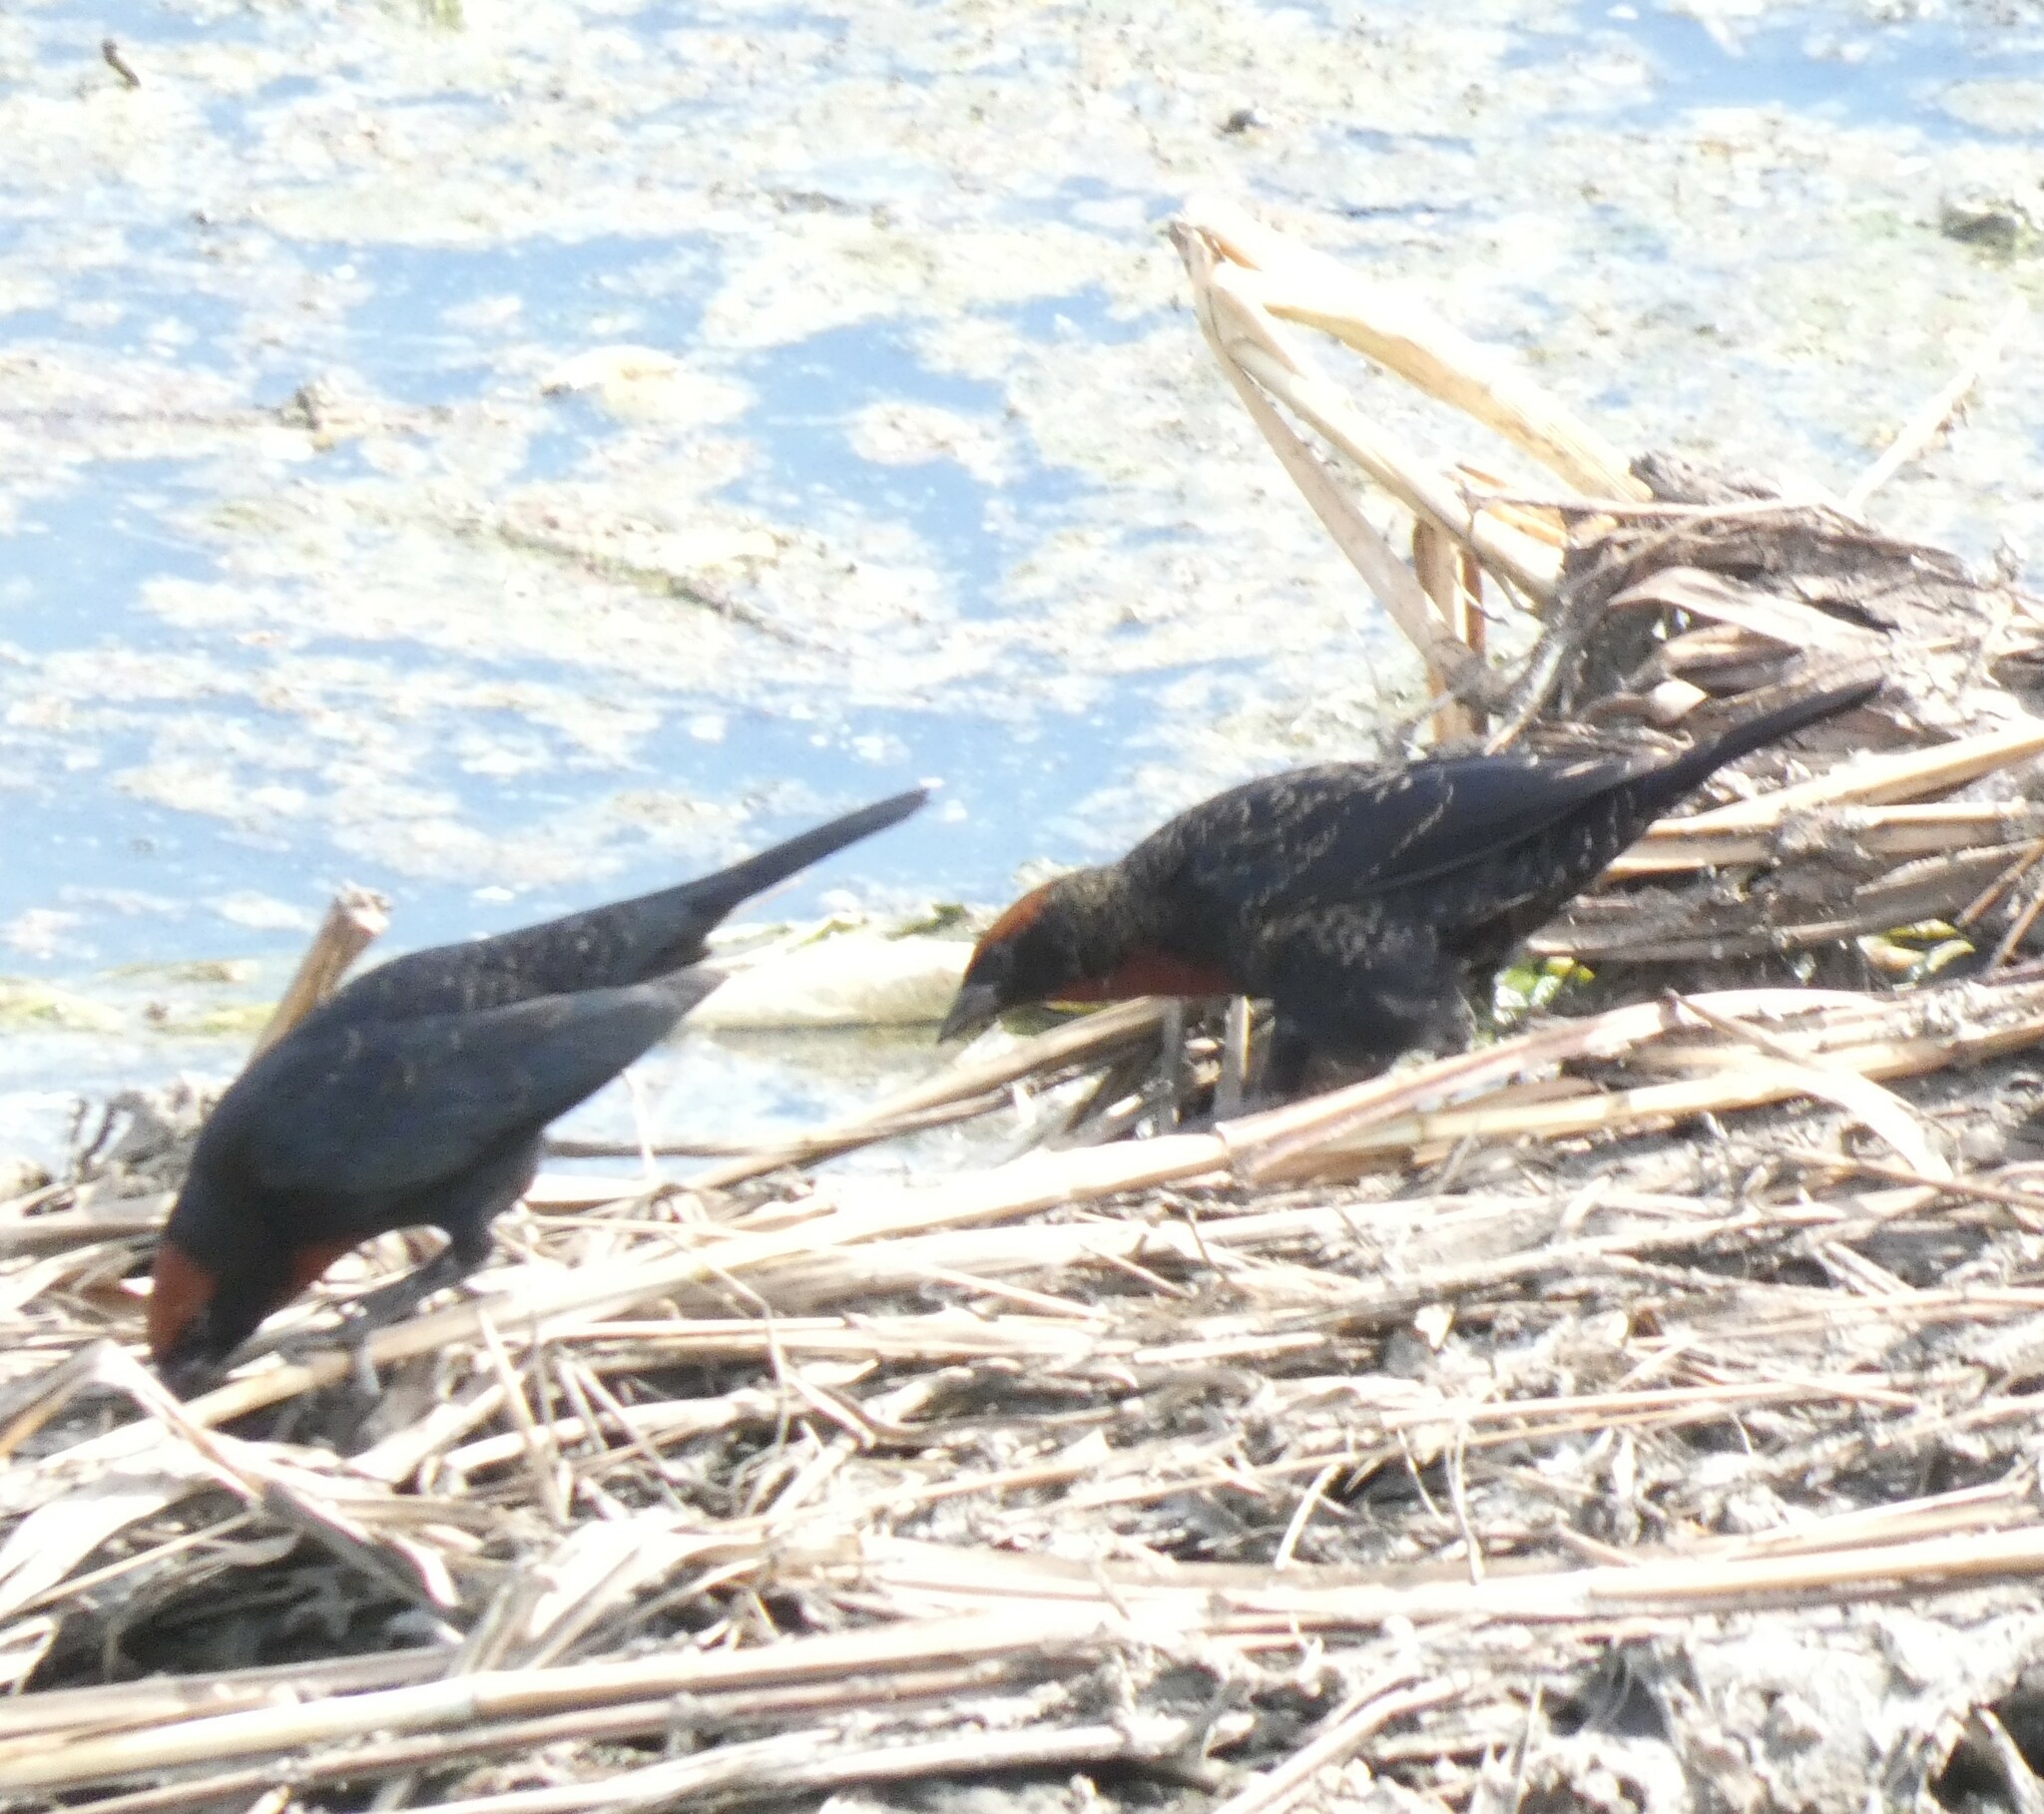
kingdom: Animalia
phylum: Chordata
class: Aves
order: Passeriformes
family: Icteridae
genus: Chrysomus
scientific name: Chrysomus ruficapillus
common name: Chestnut-capped blackbird
